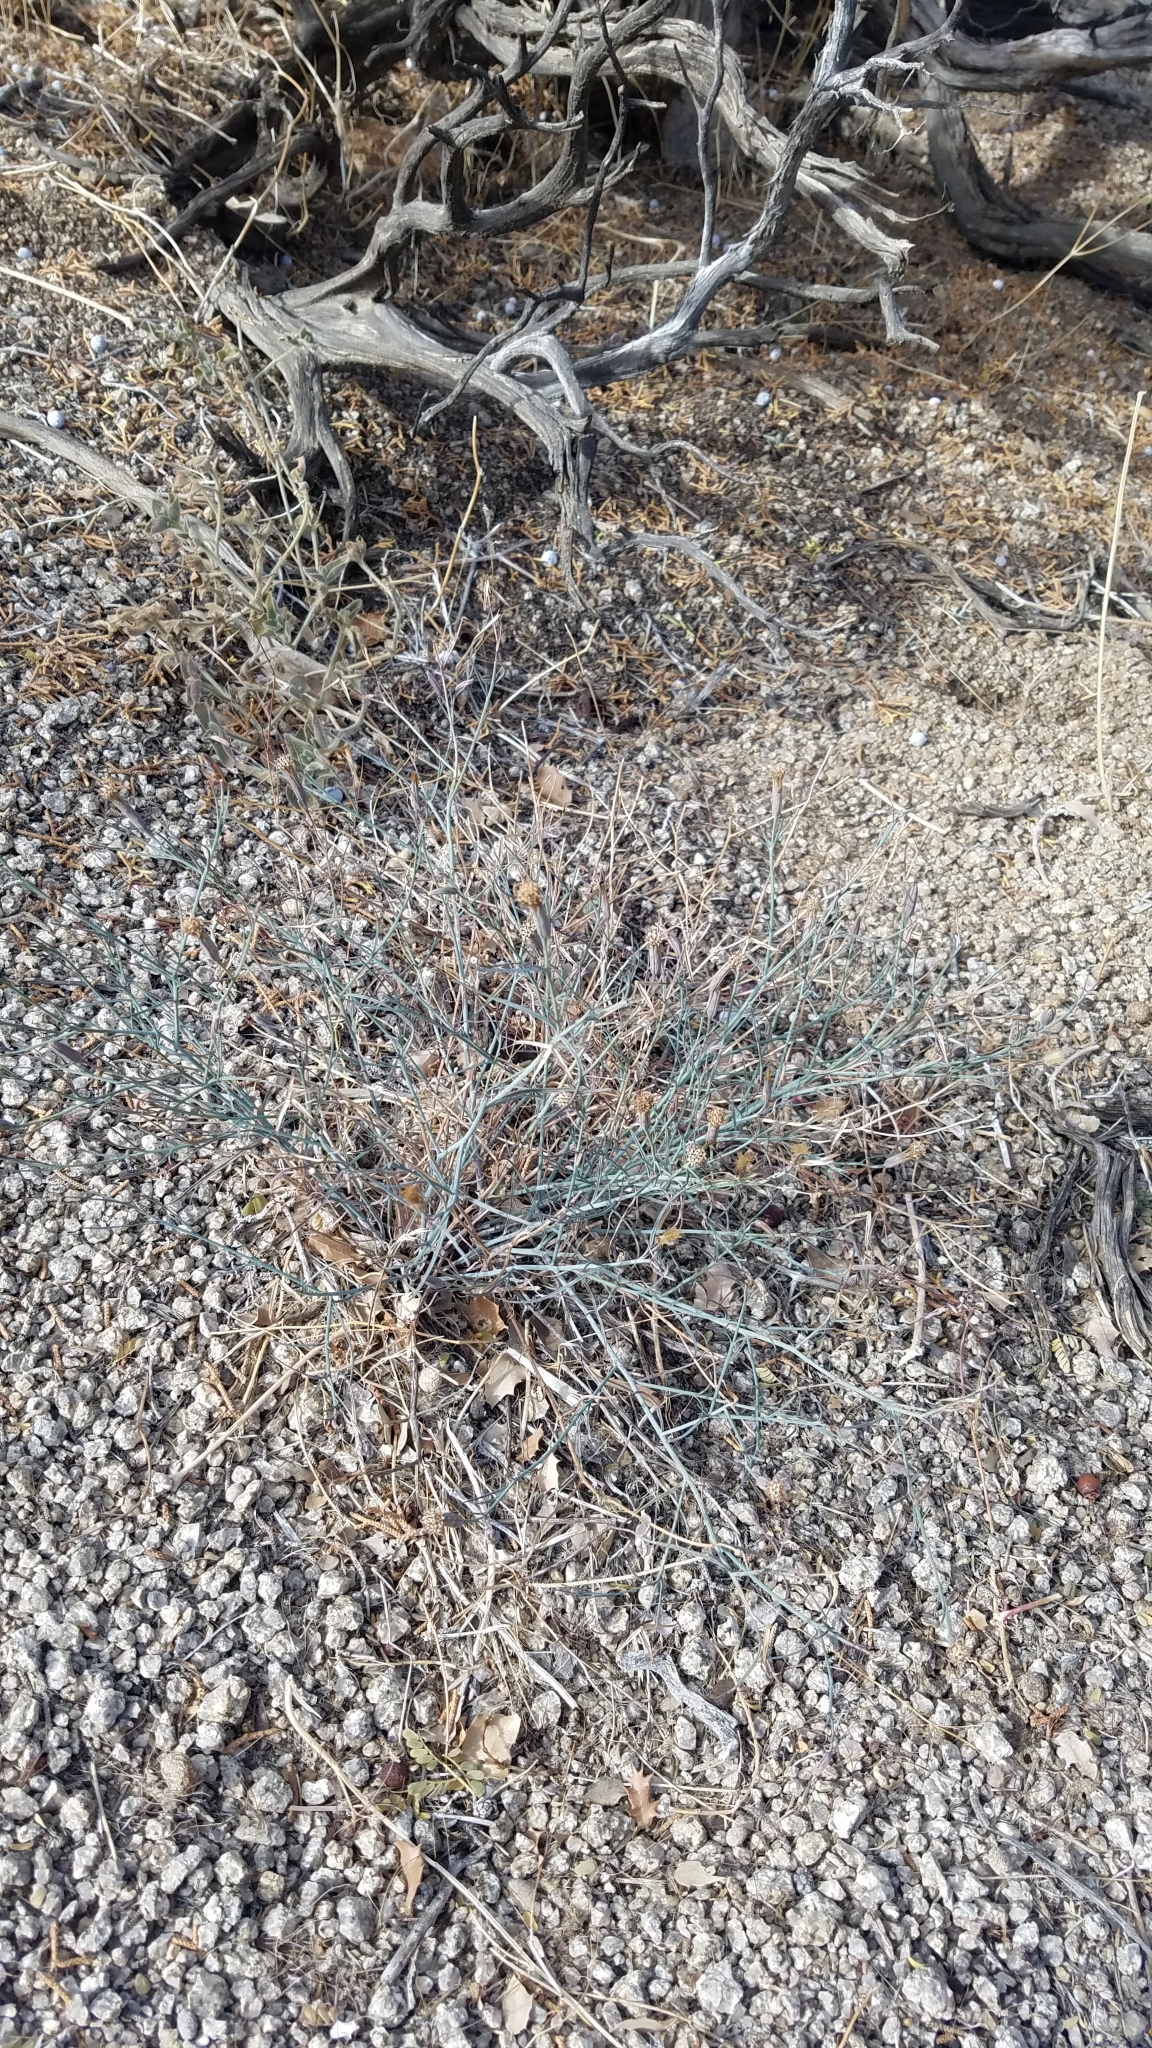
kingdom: Plantae
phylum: Tracheophyta
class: Magnoliopsida
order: Asterales
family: Asteraceae
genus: Porophyllum
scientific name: Porophyllum gracile
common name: Odora
